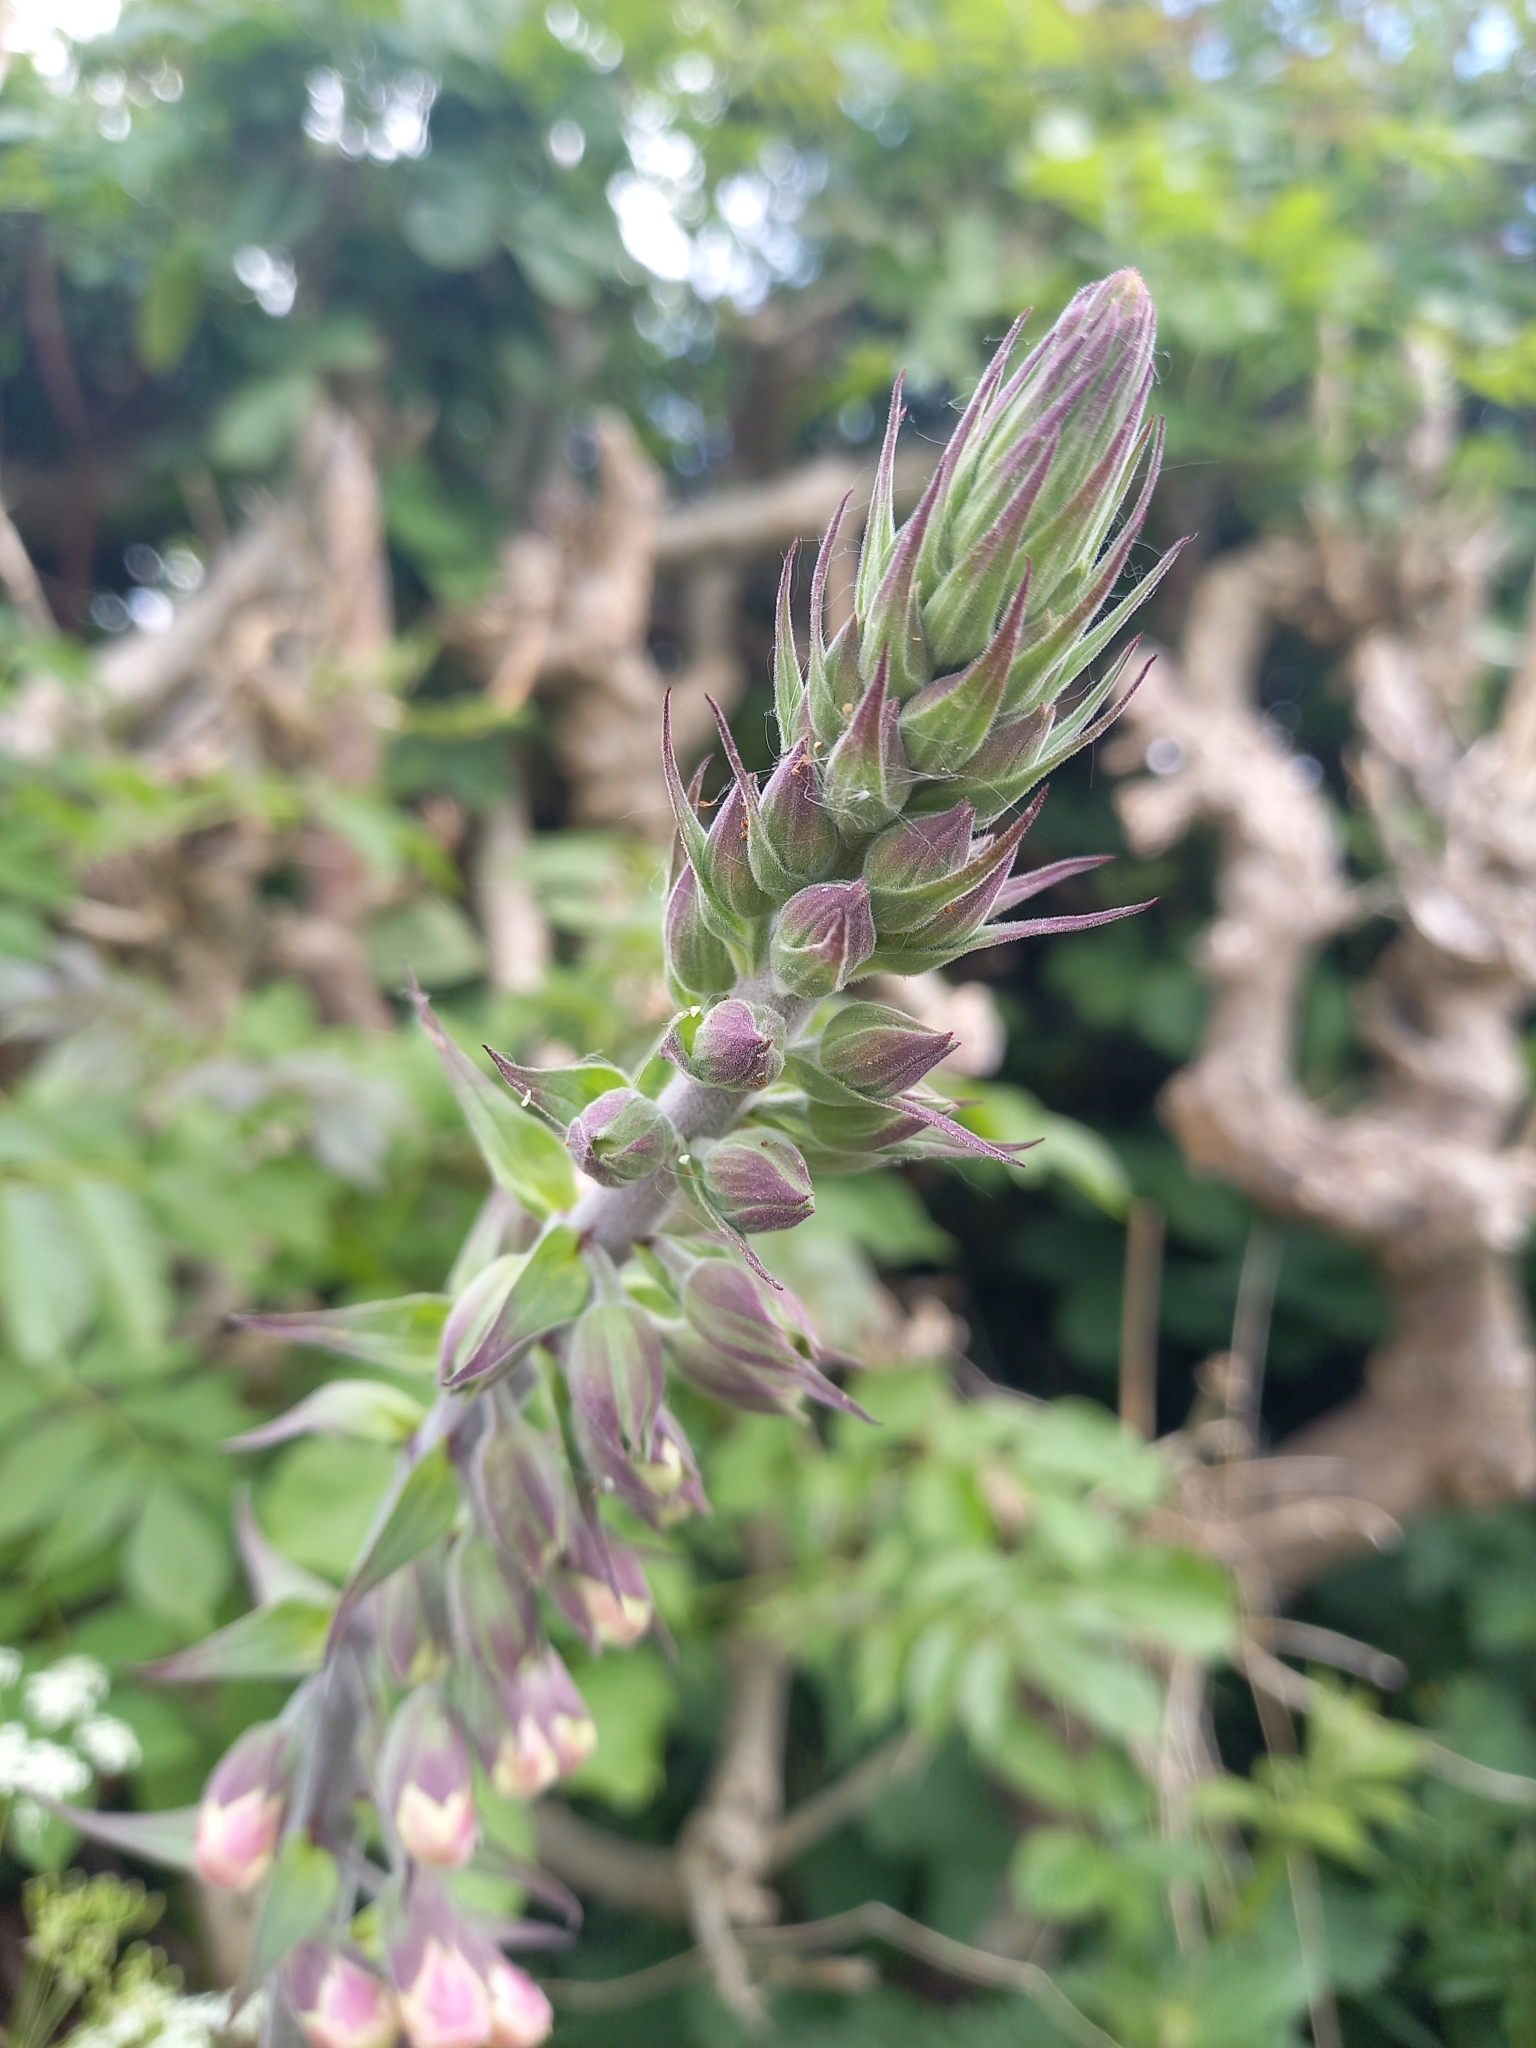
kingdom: Plantae
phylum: Tracheophyta
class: Magnoliopsida
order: Lamiales
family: Plantaginaceae
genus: Digitalis
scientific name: Digitalis purpurea
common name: Foxglove
